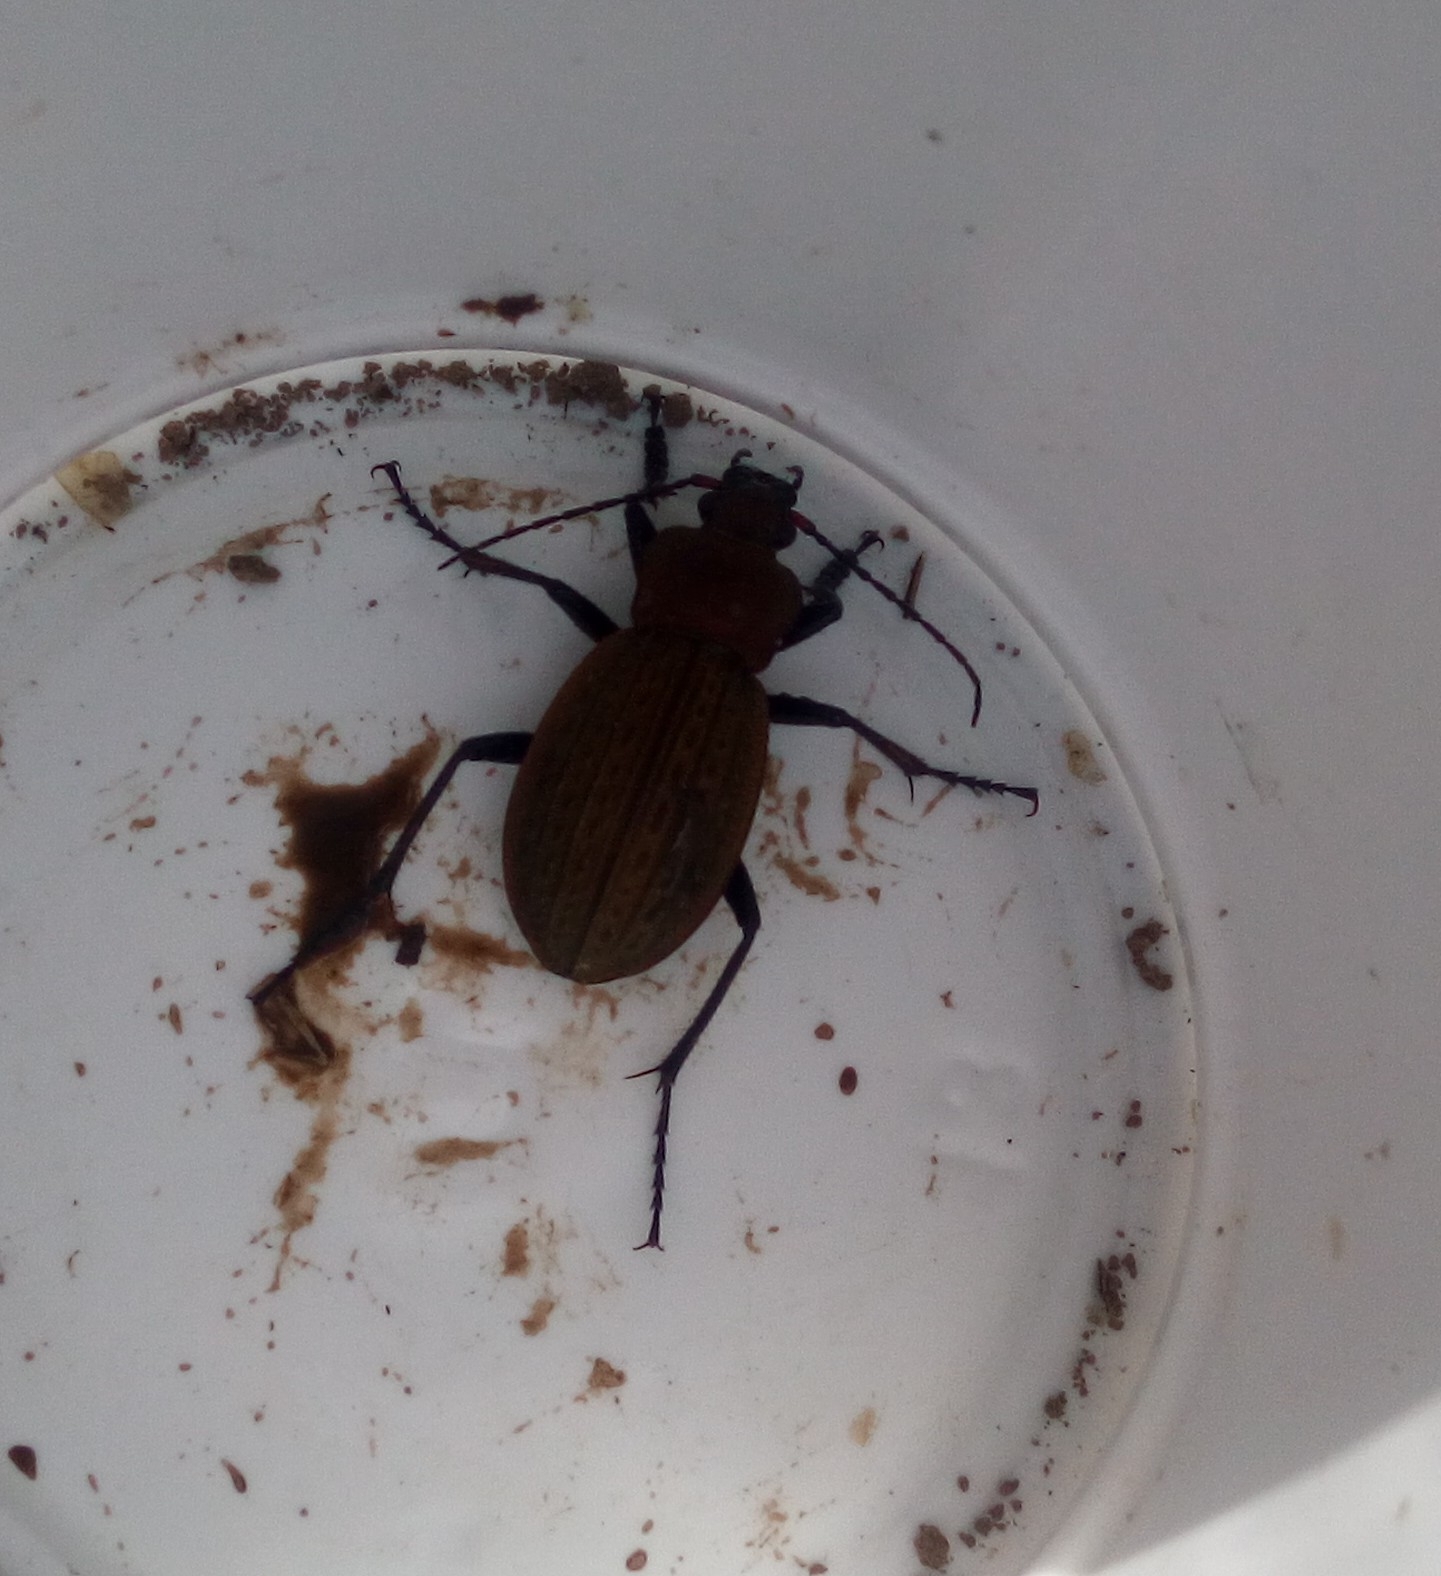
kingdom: Animalia
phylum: Arthropoda
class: Insecta
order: Coleoptera
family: Carabidae
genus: Carabus
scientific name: Carabus cancellatus
